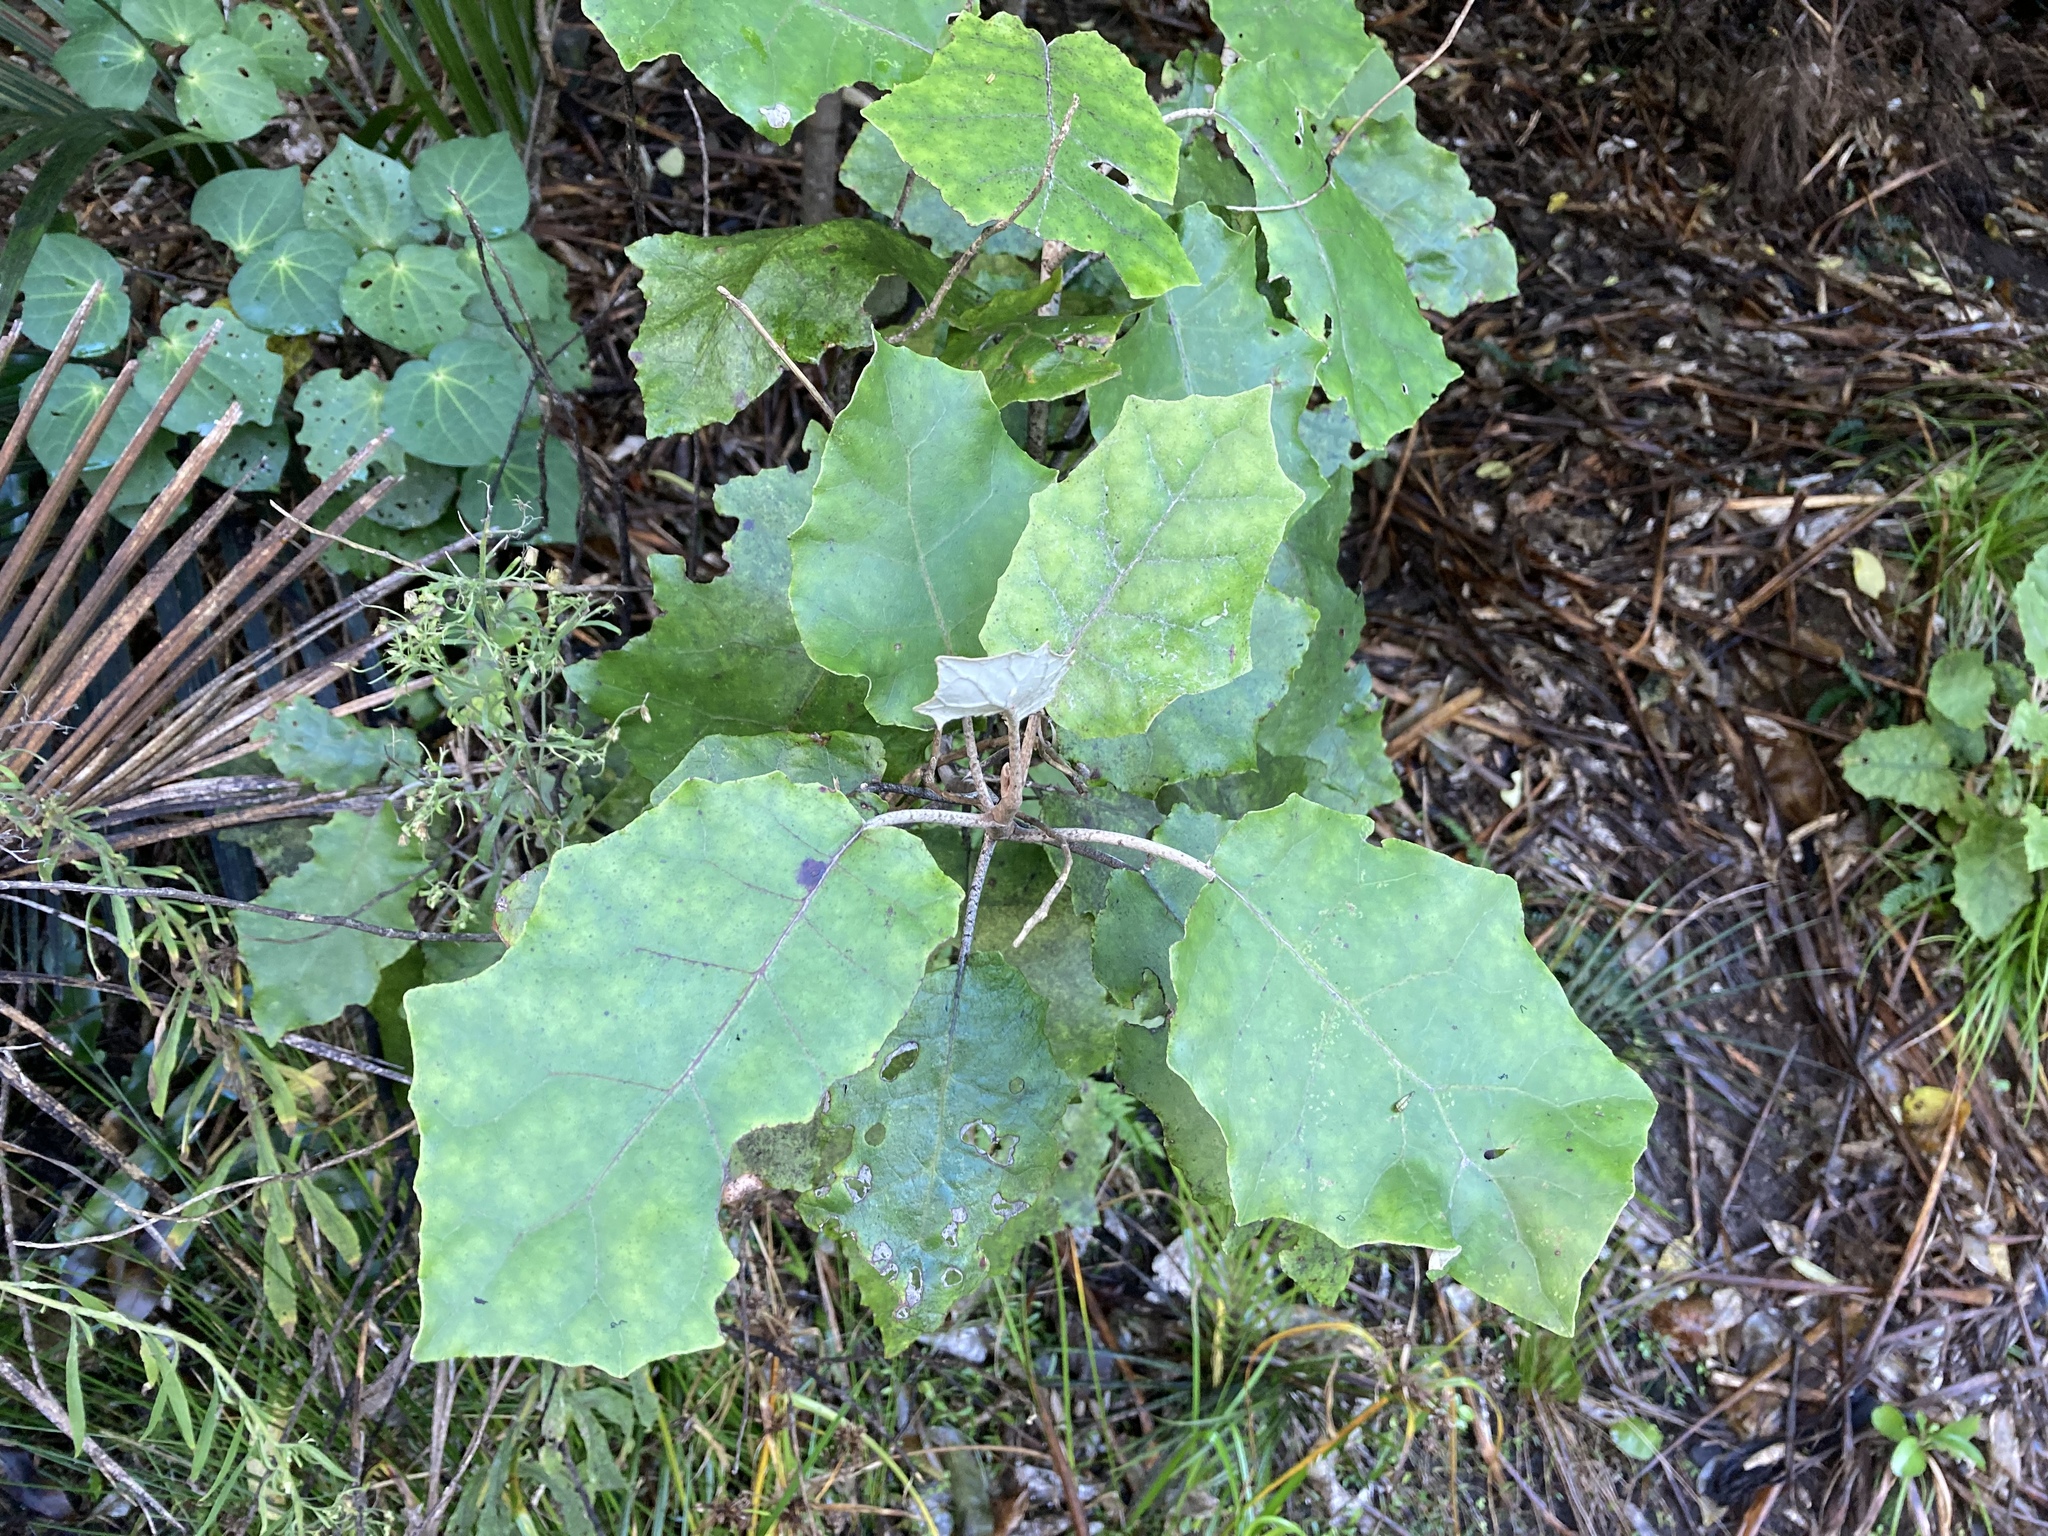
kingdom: Plantae
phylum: Tracheophyta
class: Magnoliopsida
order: Asterales
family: Asteraceae
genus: Brachyglottis
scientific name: Brachyglottis repanda
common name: Hedge ragwort
